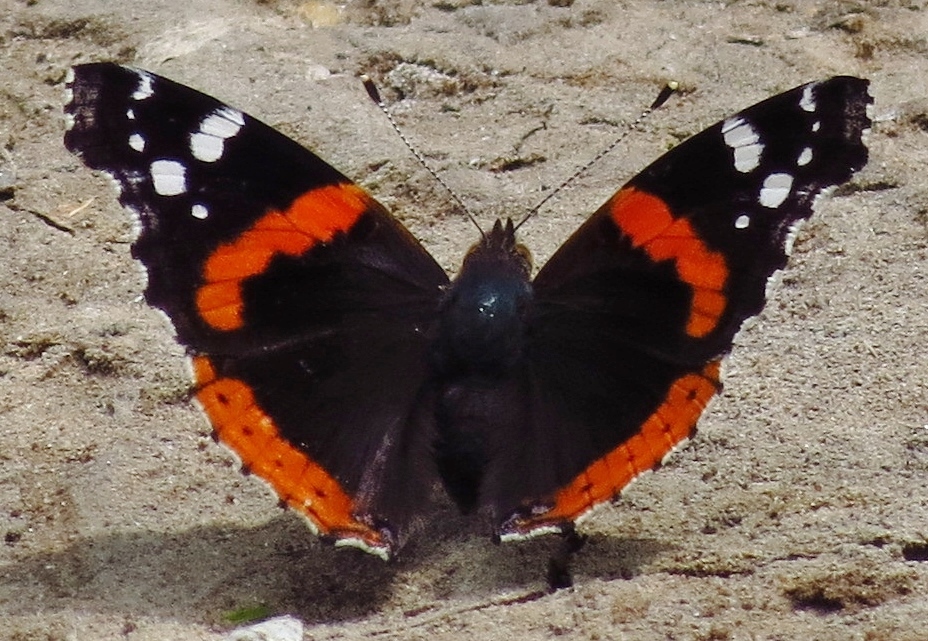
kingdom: Animalia
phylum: Arthropoda
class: Insecta
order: Lepidoptera
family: Nymphalidae
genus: Vanessa
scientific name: Vanessa atalanta
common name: Red admiral
